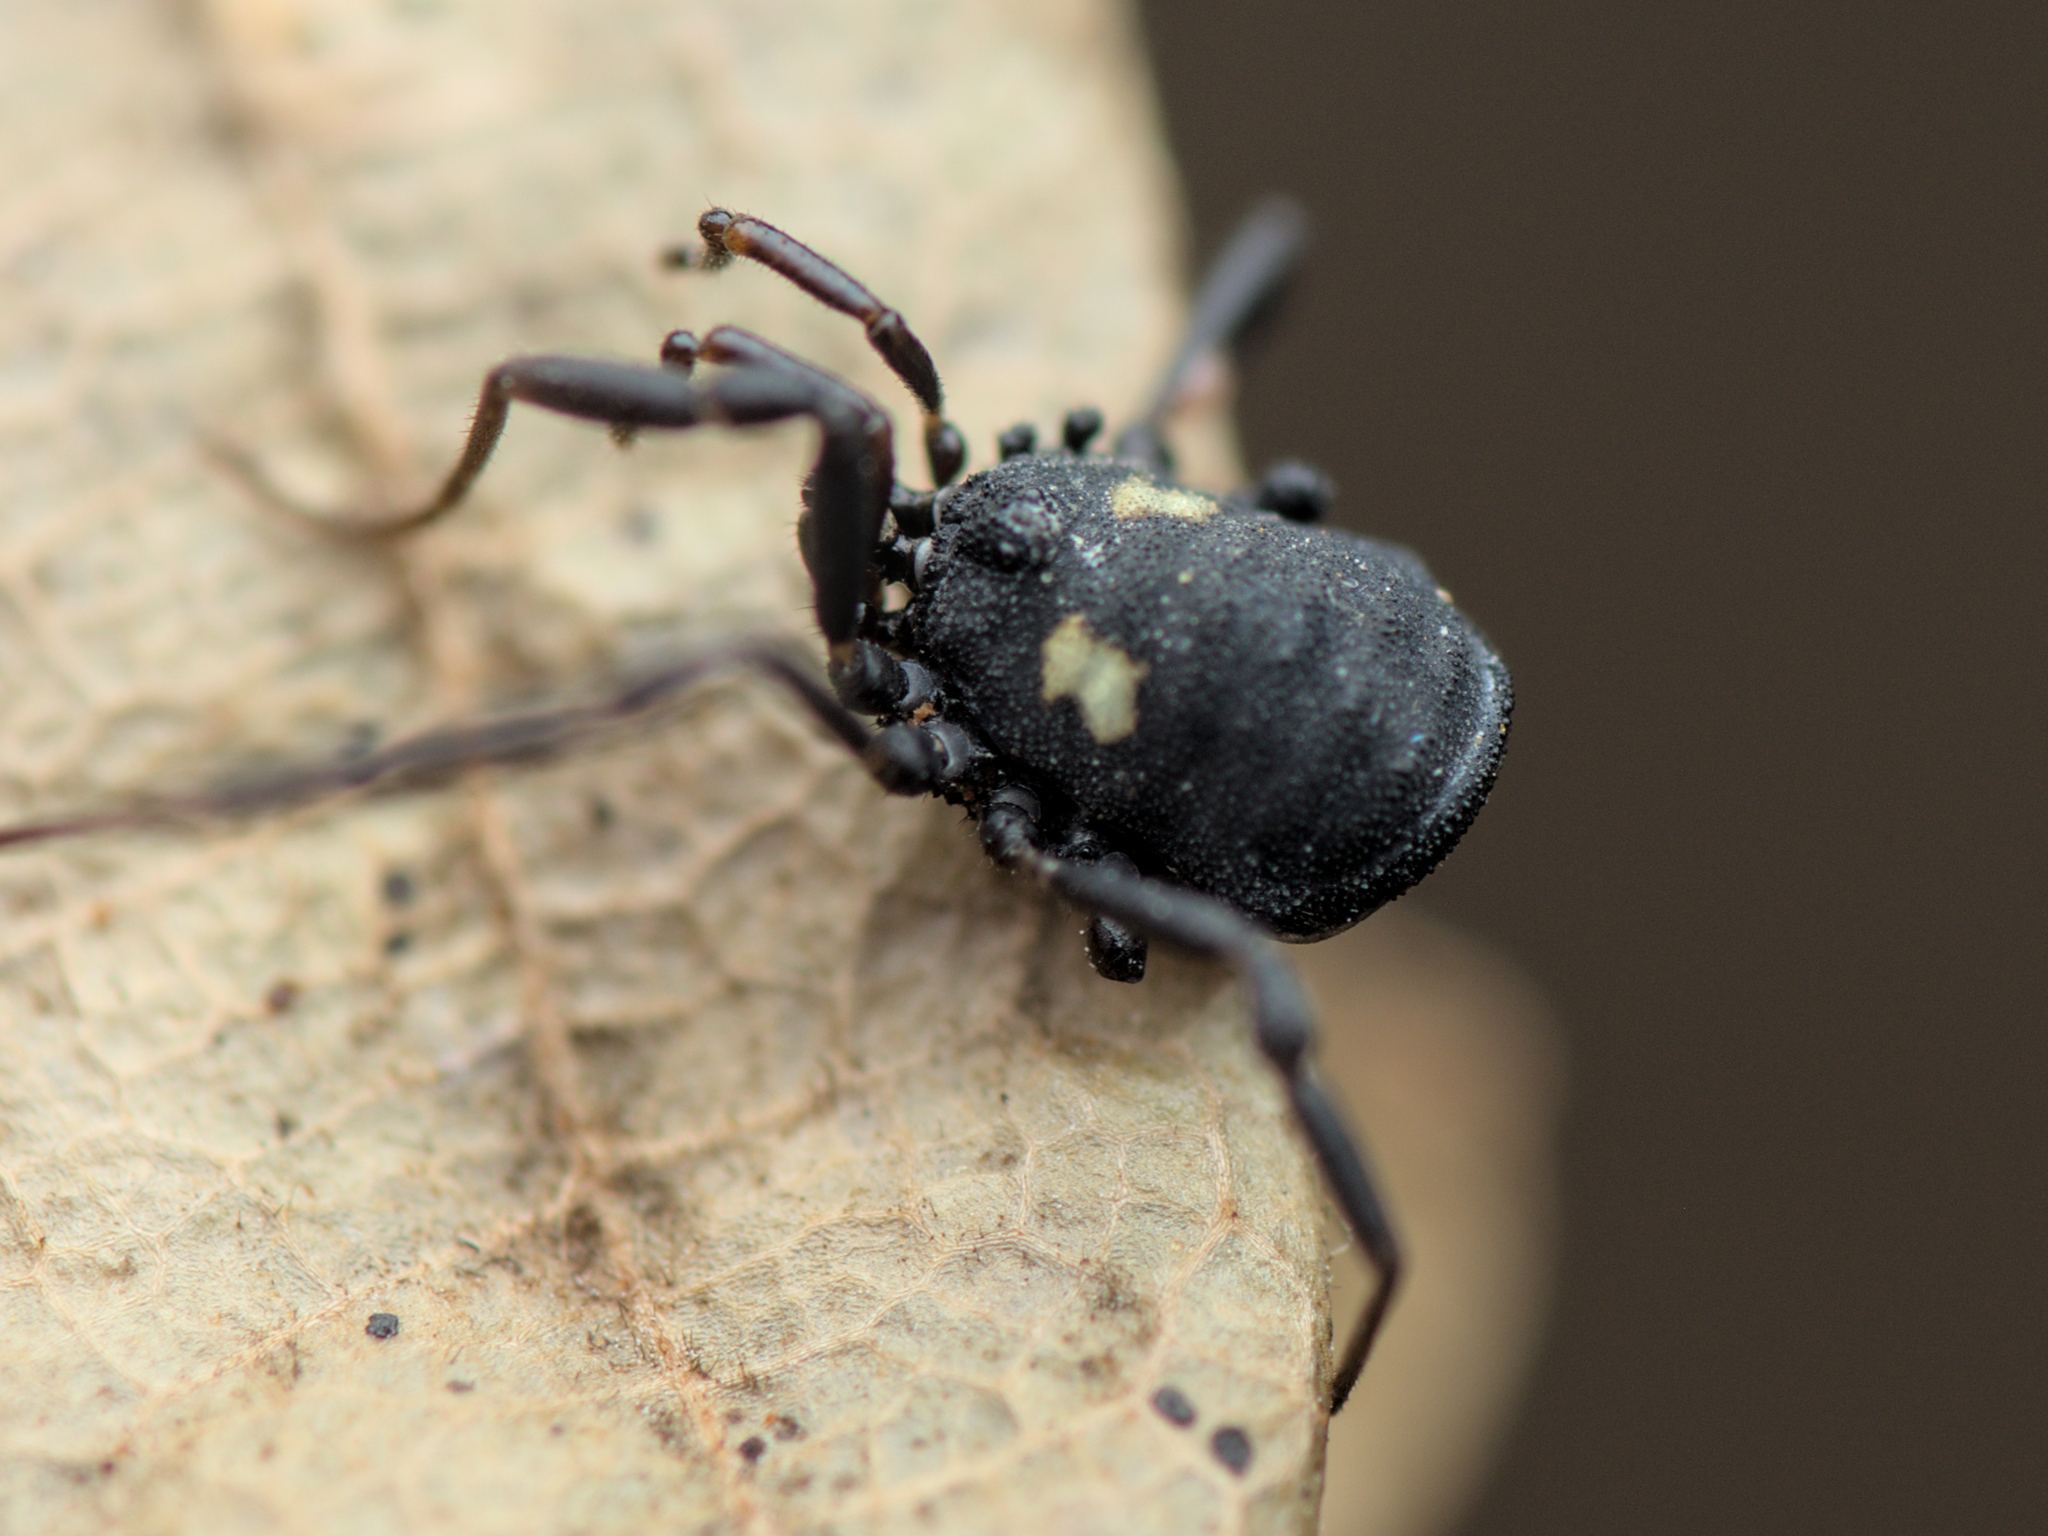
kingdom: Animalia
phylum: Arthropoda
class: Arachnida
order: Opiliones
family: Nemastomatidae
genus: Nemastoma
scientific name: Nemastoma bimaculatum
